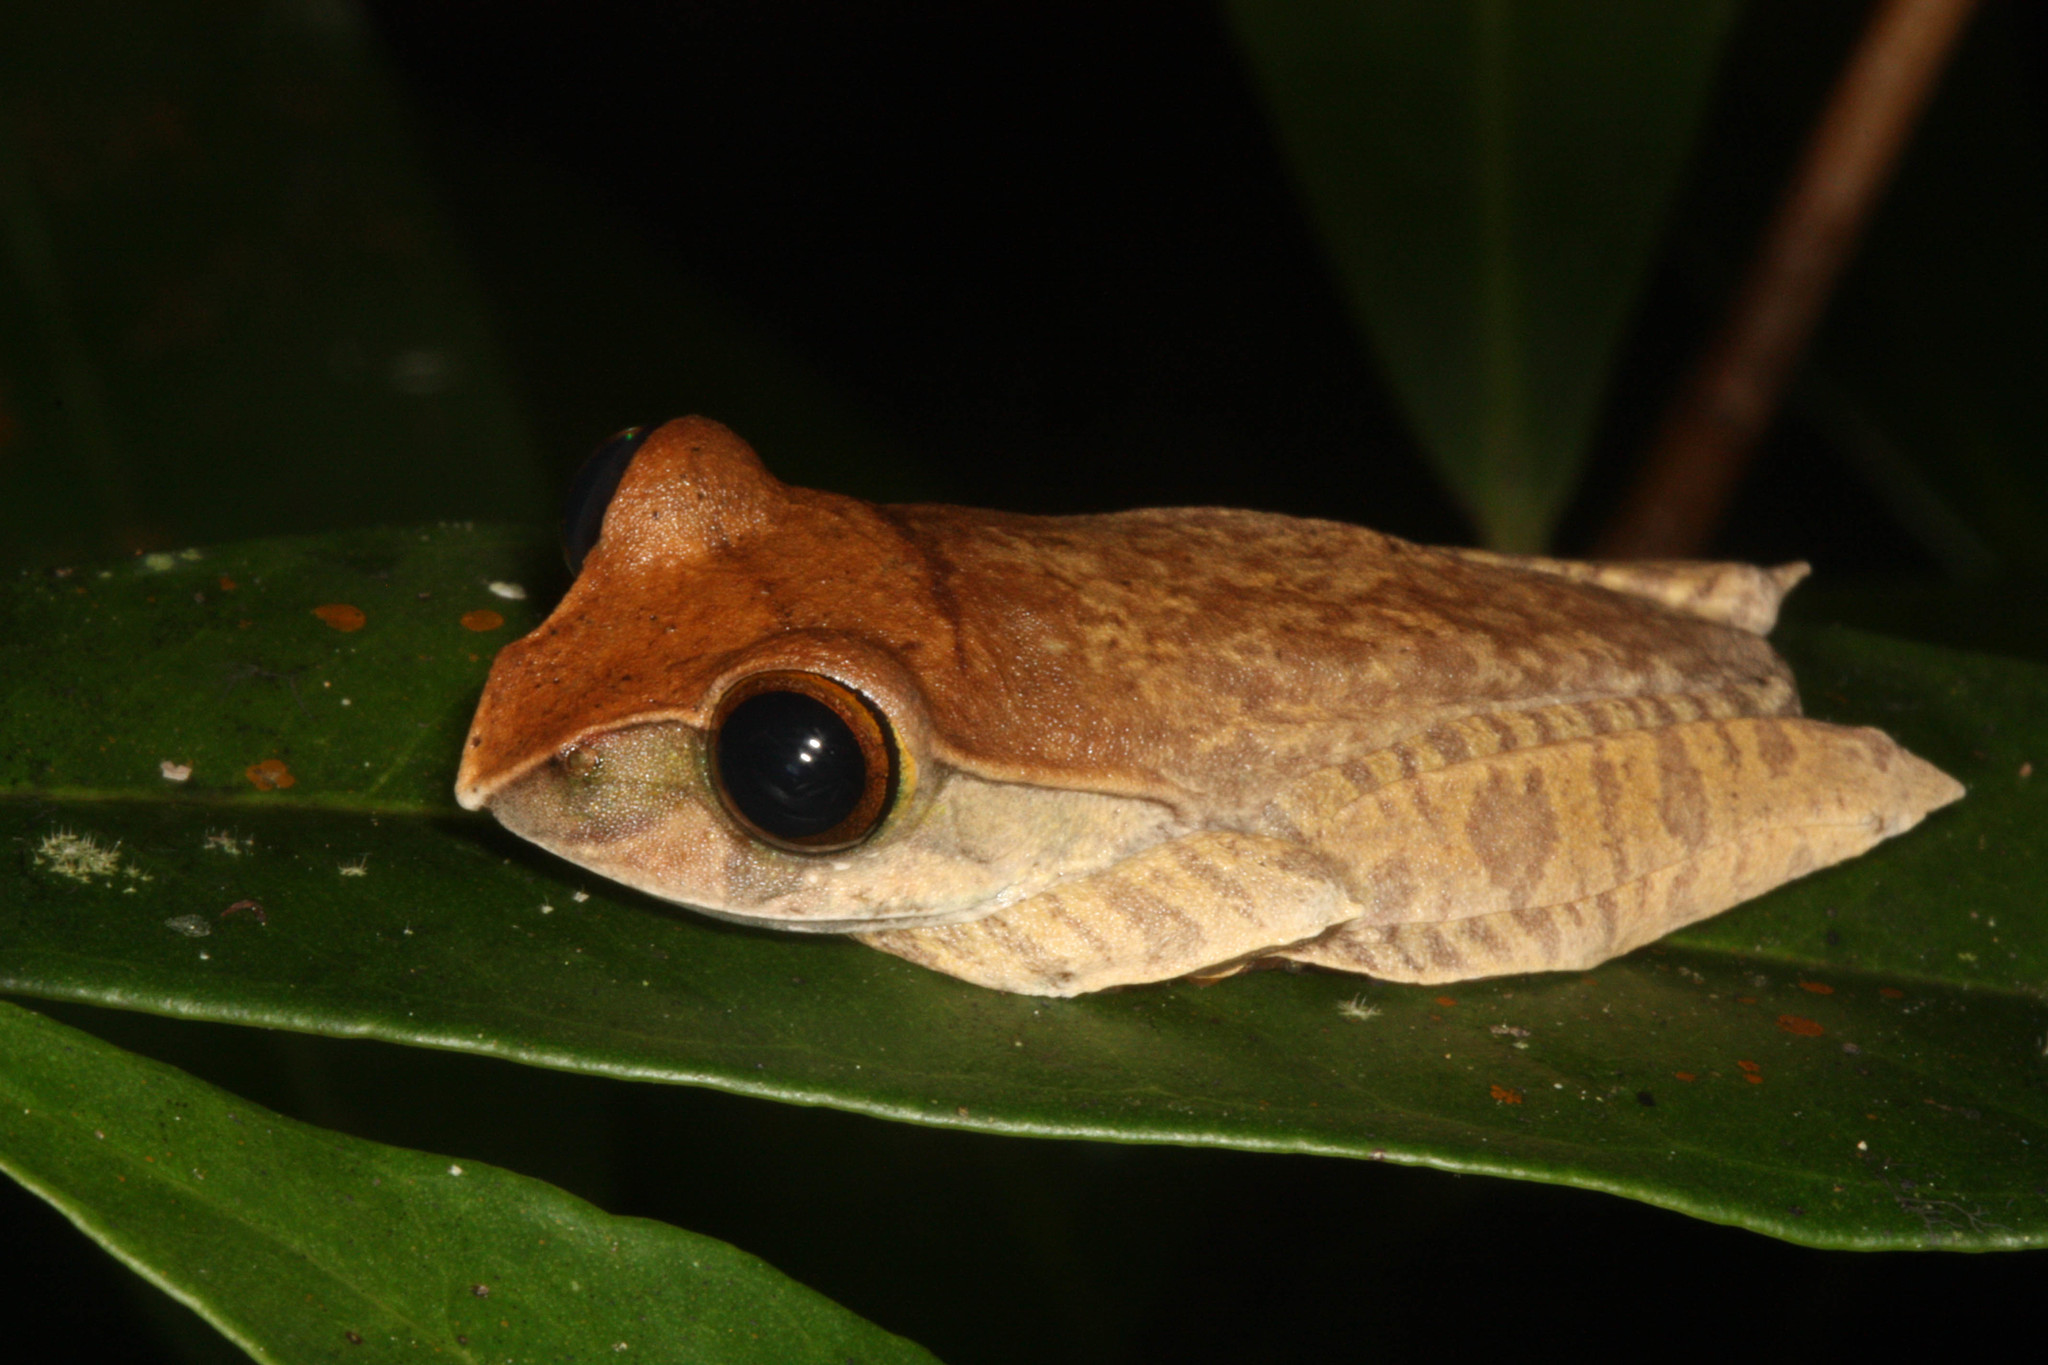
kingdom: Animalia
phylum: Chordata
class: Amphibia
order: Anura
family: Mantellidae
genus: Boophis
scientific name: Boophis madagascariensis
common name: Madagascar bright-eyed frog
